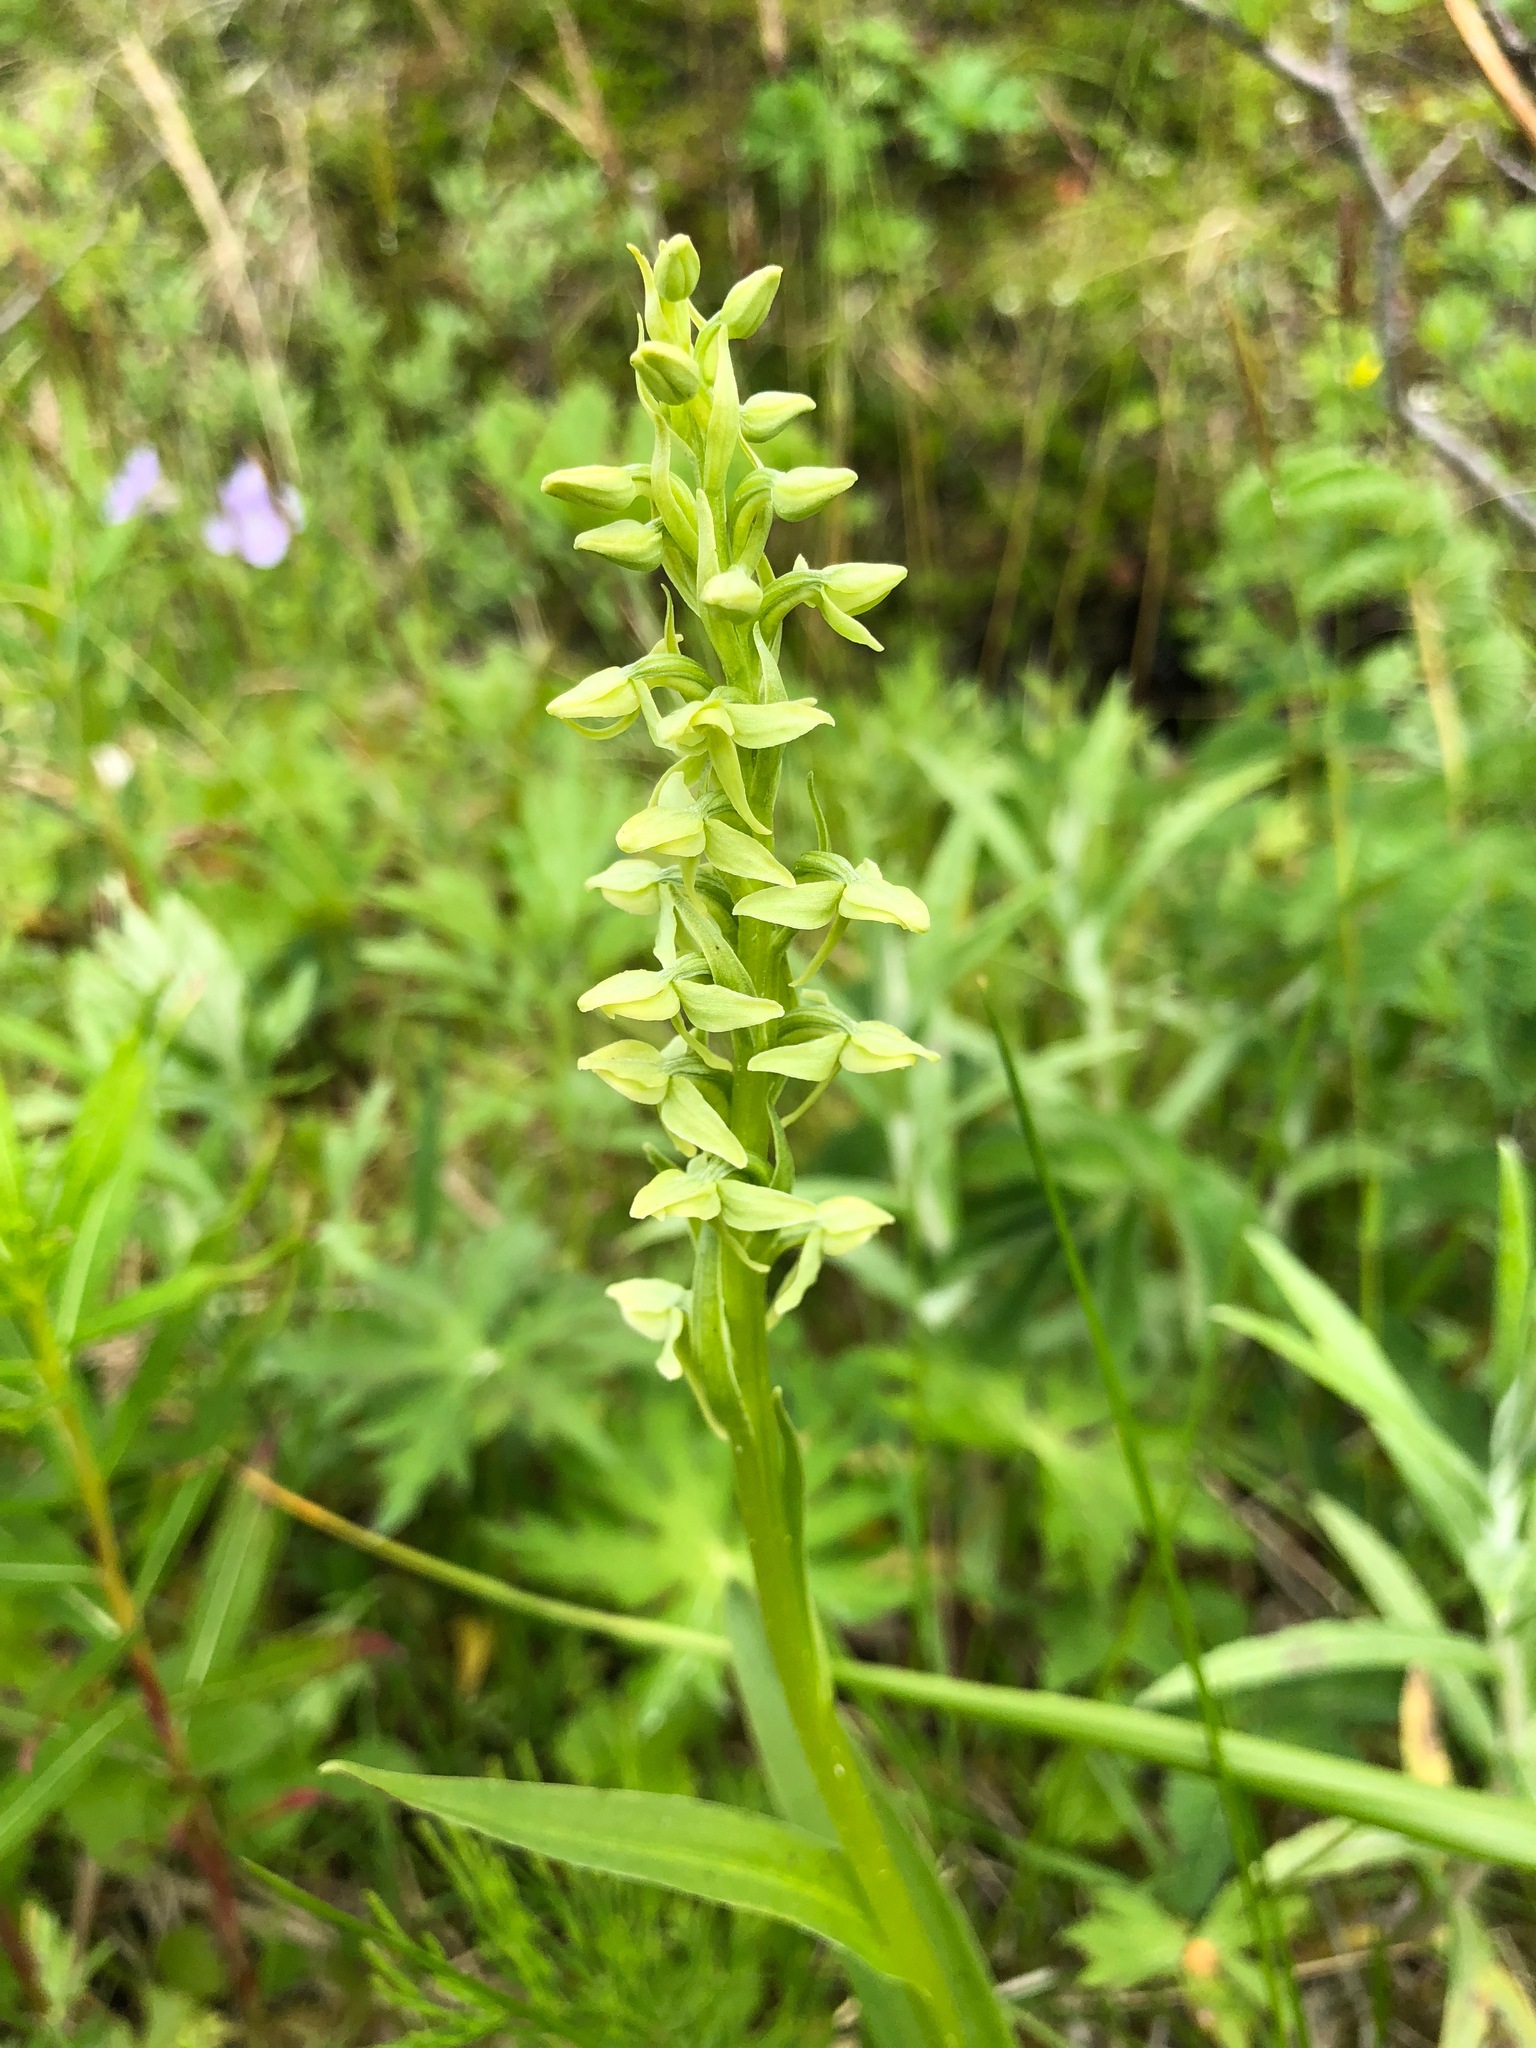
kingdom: Plantae
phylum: Tracheophyta
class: Liliopsida
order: Asparagales
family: Orchidaceae
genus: Platanthera
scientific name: Platanthera convallariifolia
